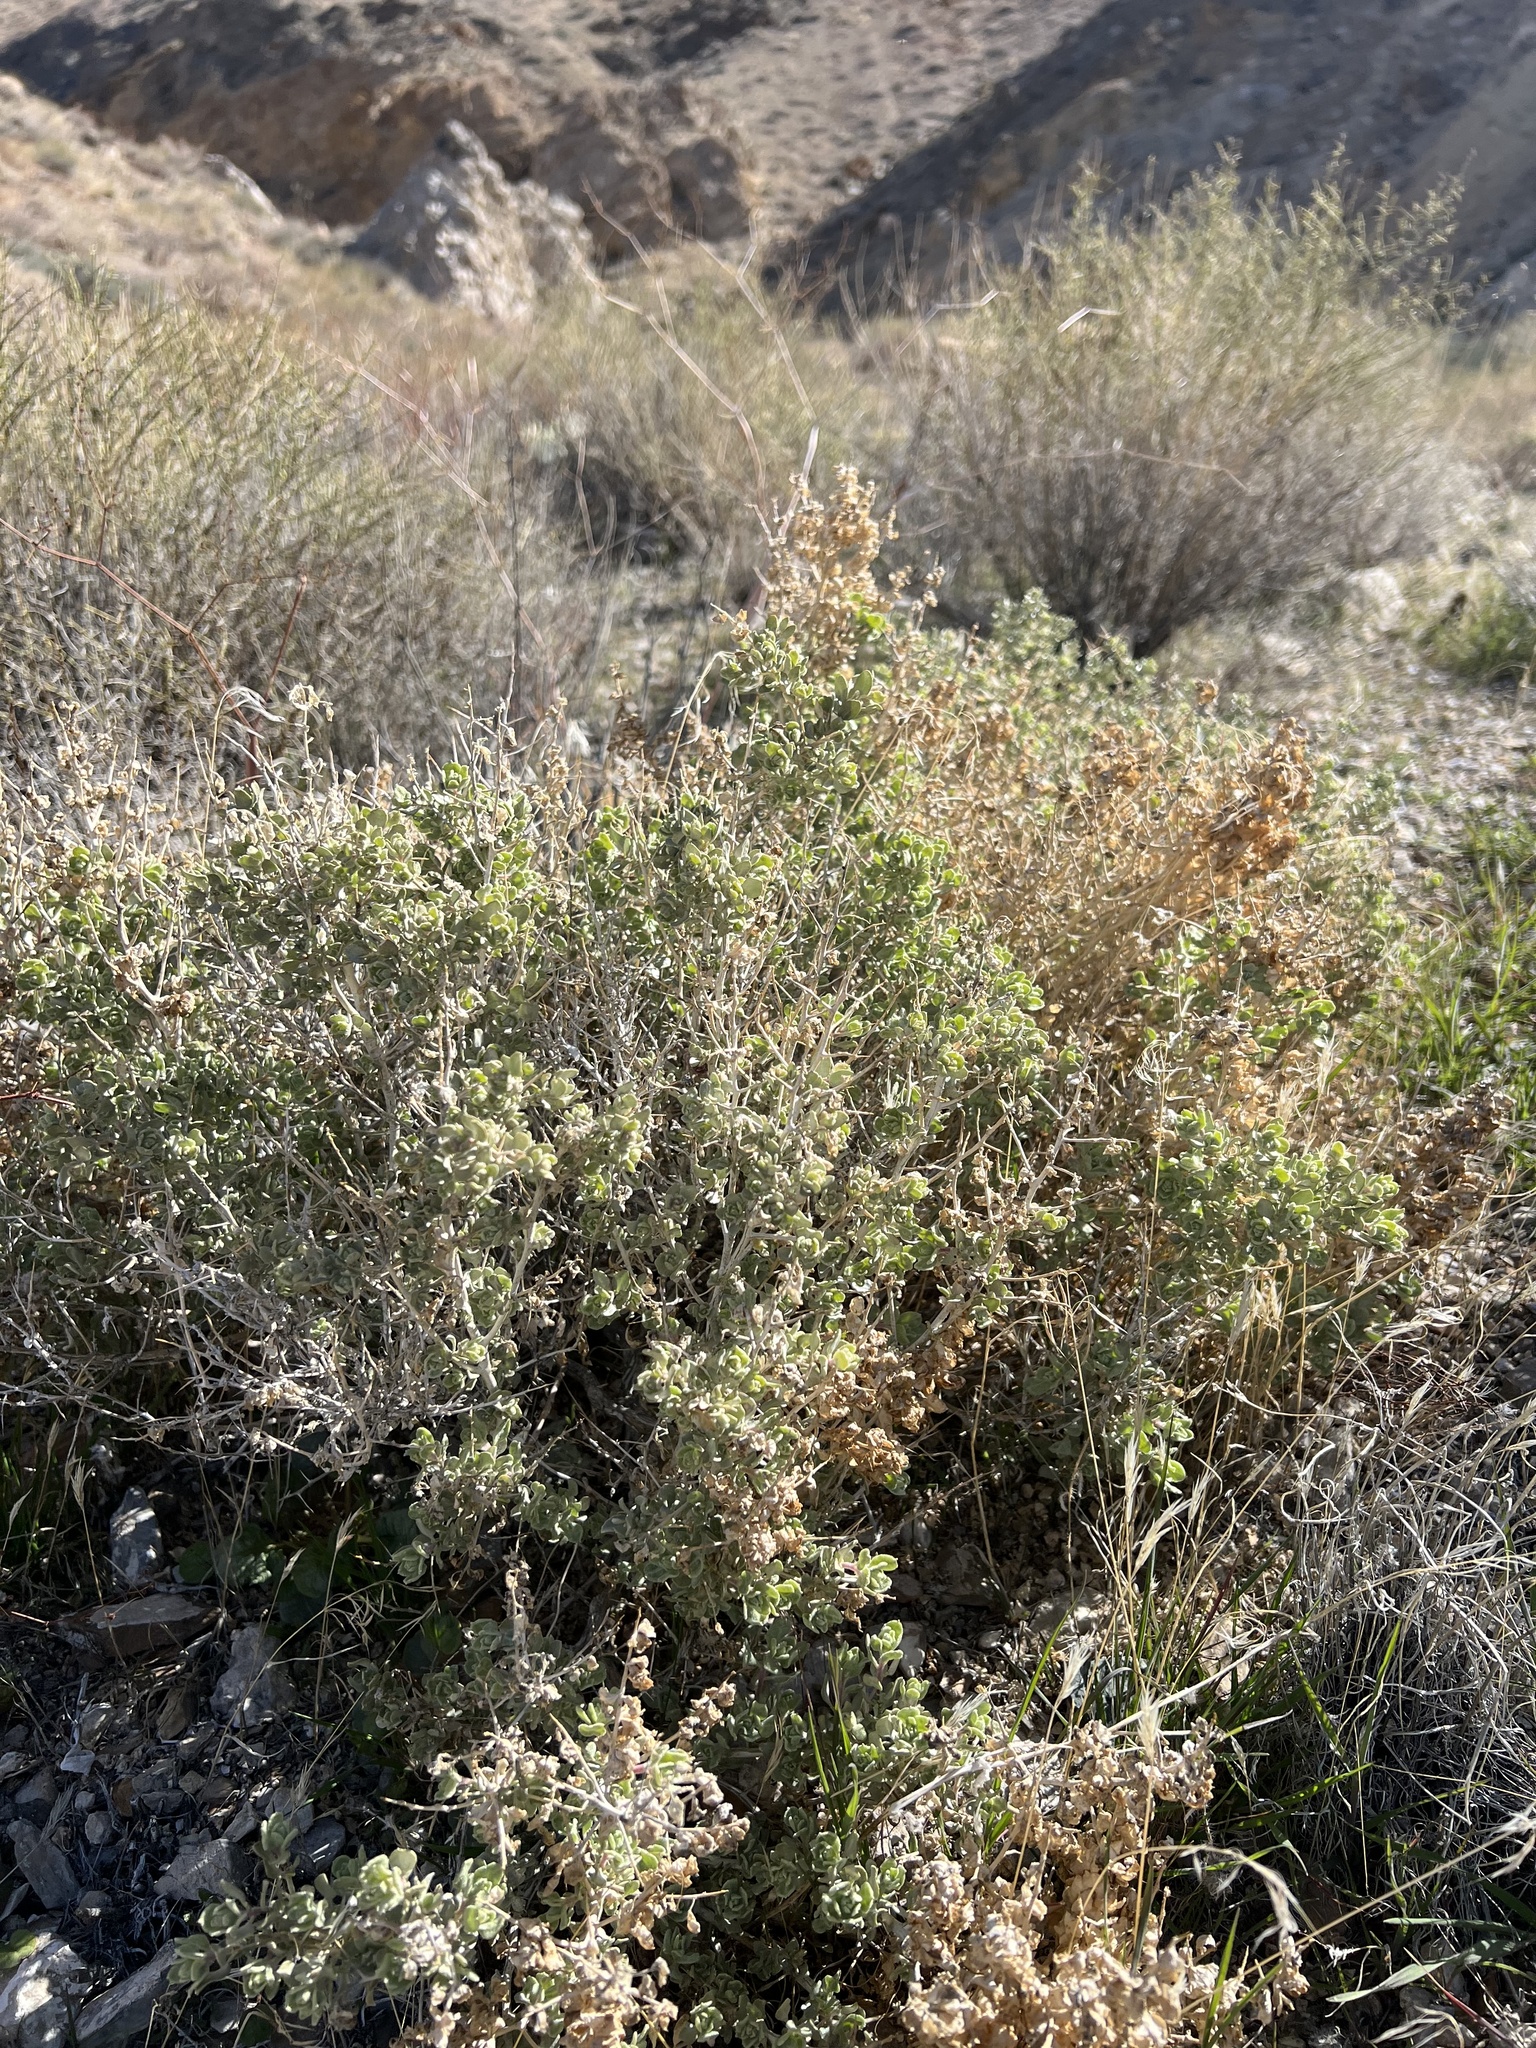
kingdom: Plantae
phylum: Tracheophyta
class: Magnoliopsida
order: Caryophyllales
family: Amaranthaceae
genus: Atriplex
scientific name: Atriplex confertifolia
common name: Shadscale
